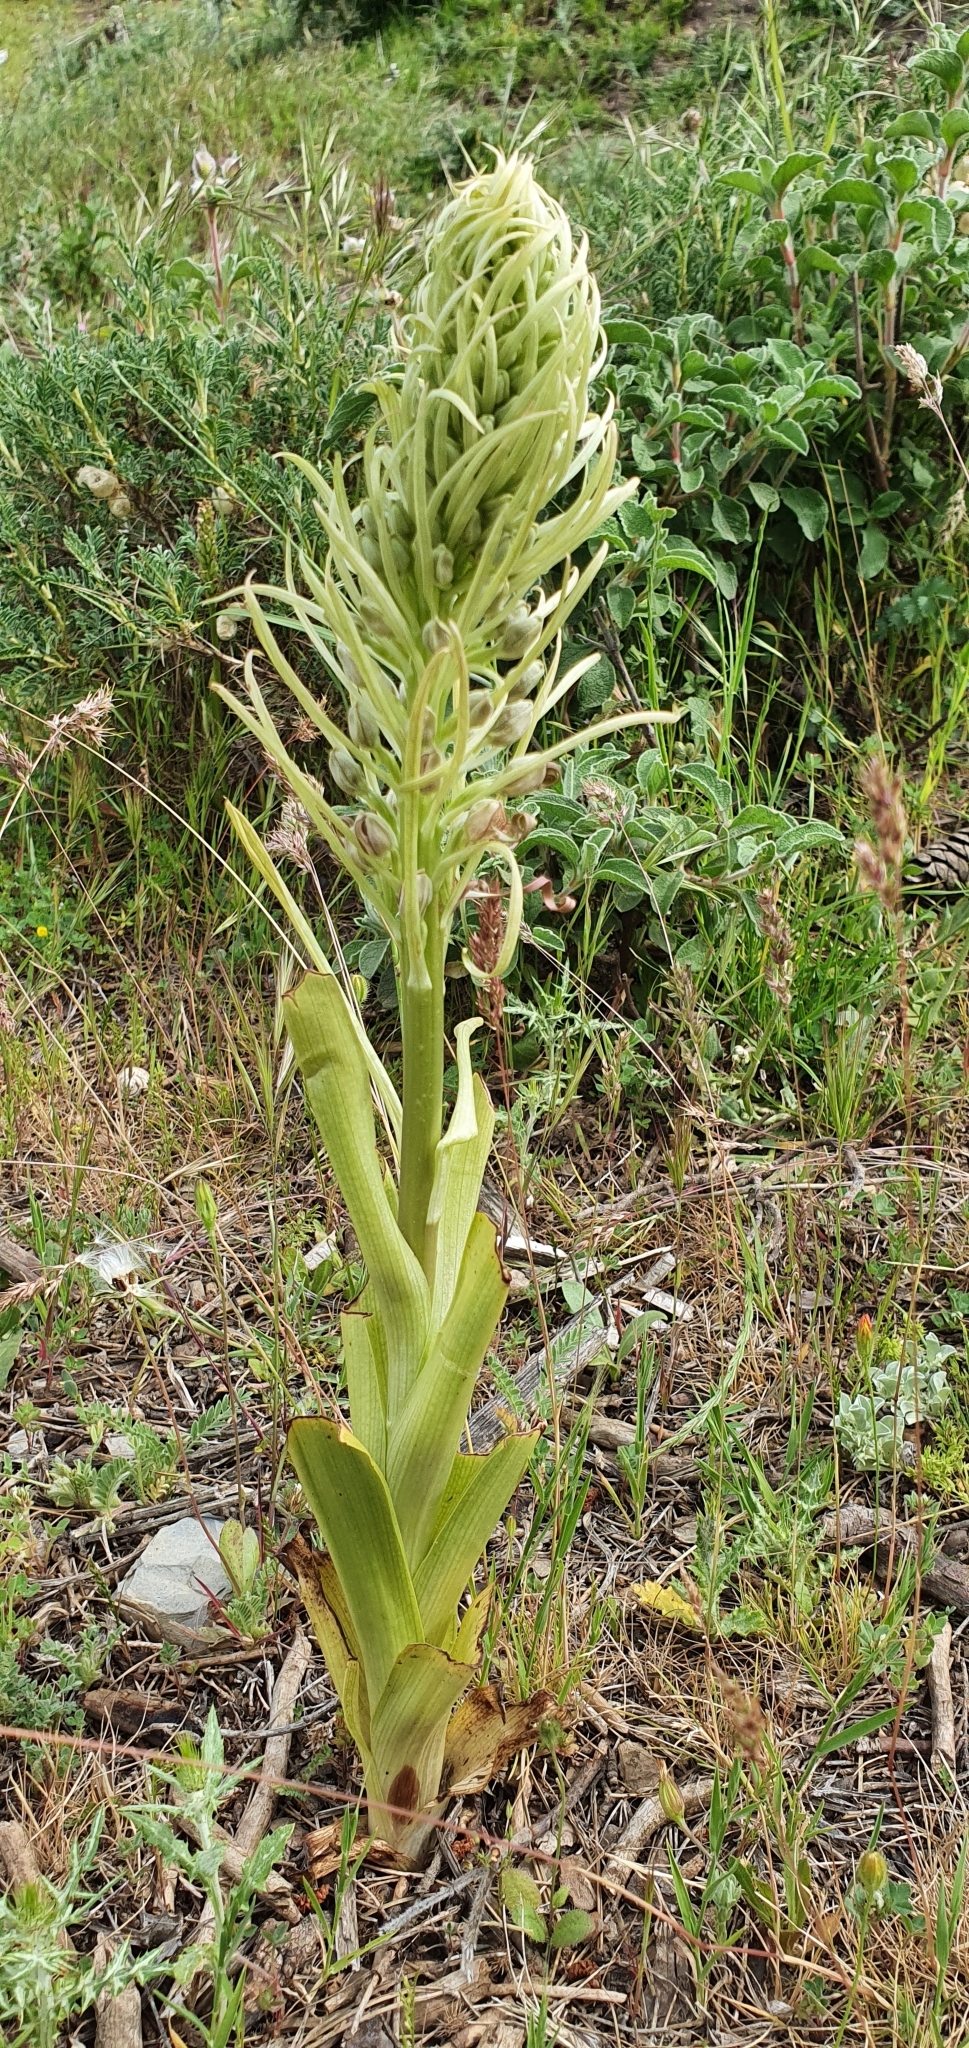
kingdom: Plantae
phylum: Tracheophyta
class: Liliopsida
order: Asparagales
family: Orchidaceae
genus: Himantoglossum
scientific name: Himantoglossum hircinum
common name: Lizard orchid
